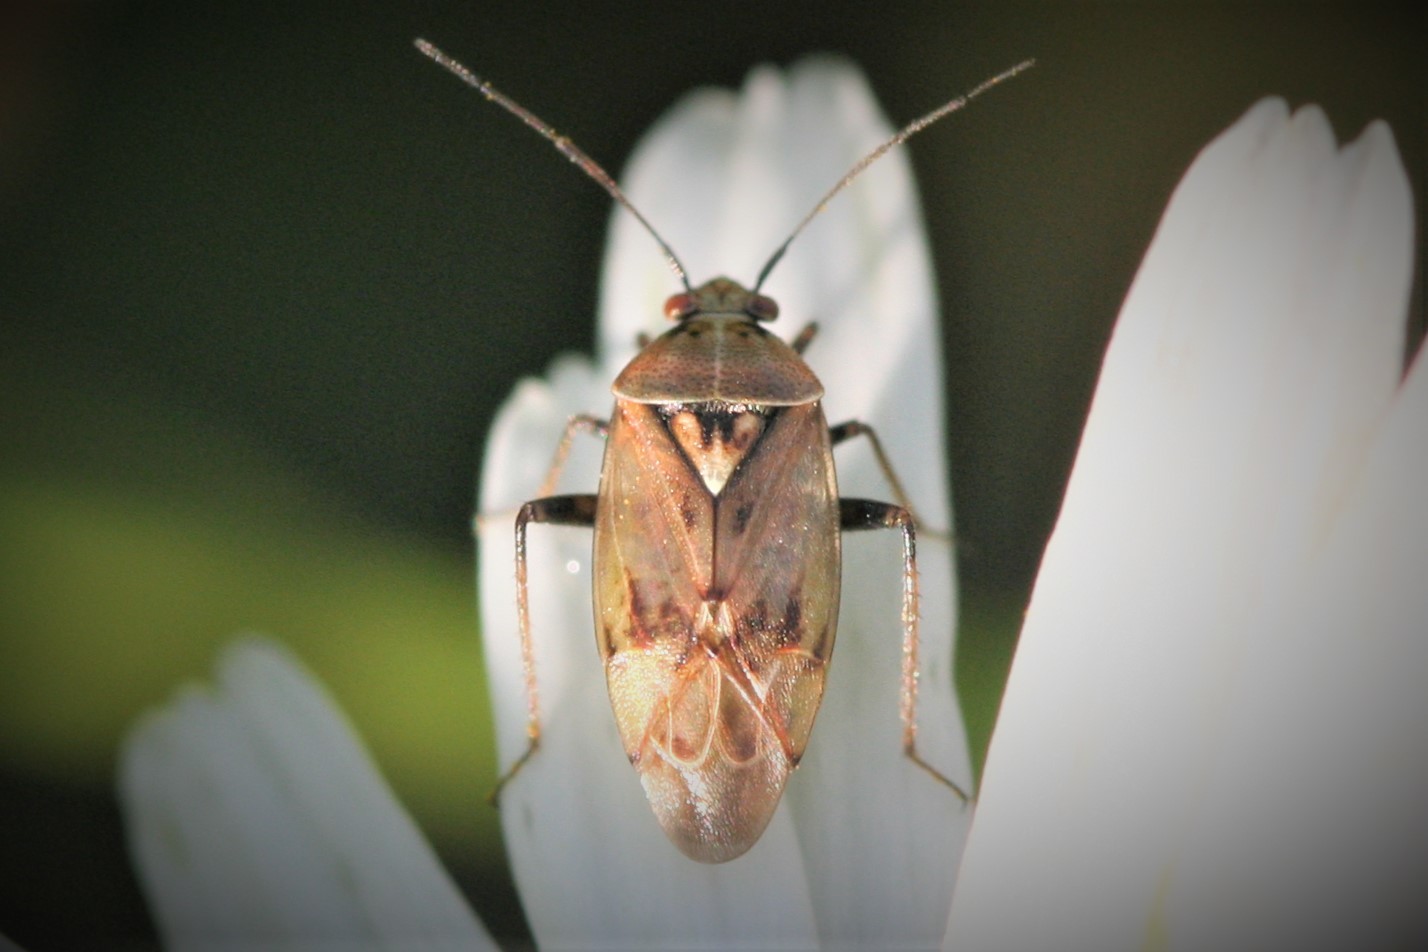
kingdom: Animalia
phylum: Arthropoda
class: Insecta
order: Hemiptera
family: Miridae
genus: Lygus
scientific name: Lygus rugulipennis
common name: European tarnished plant bug
